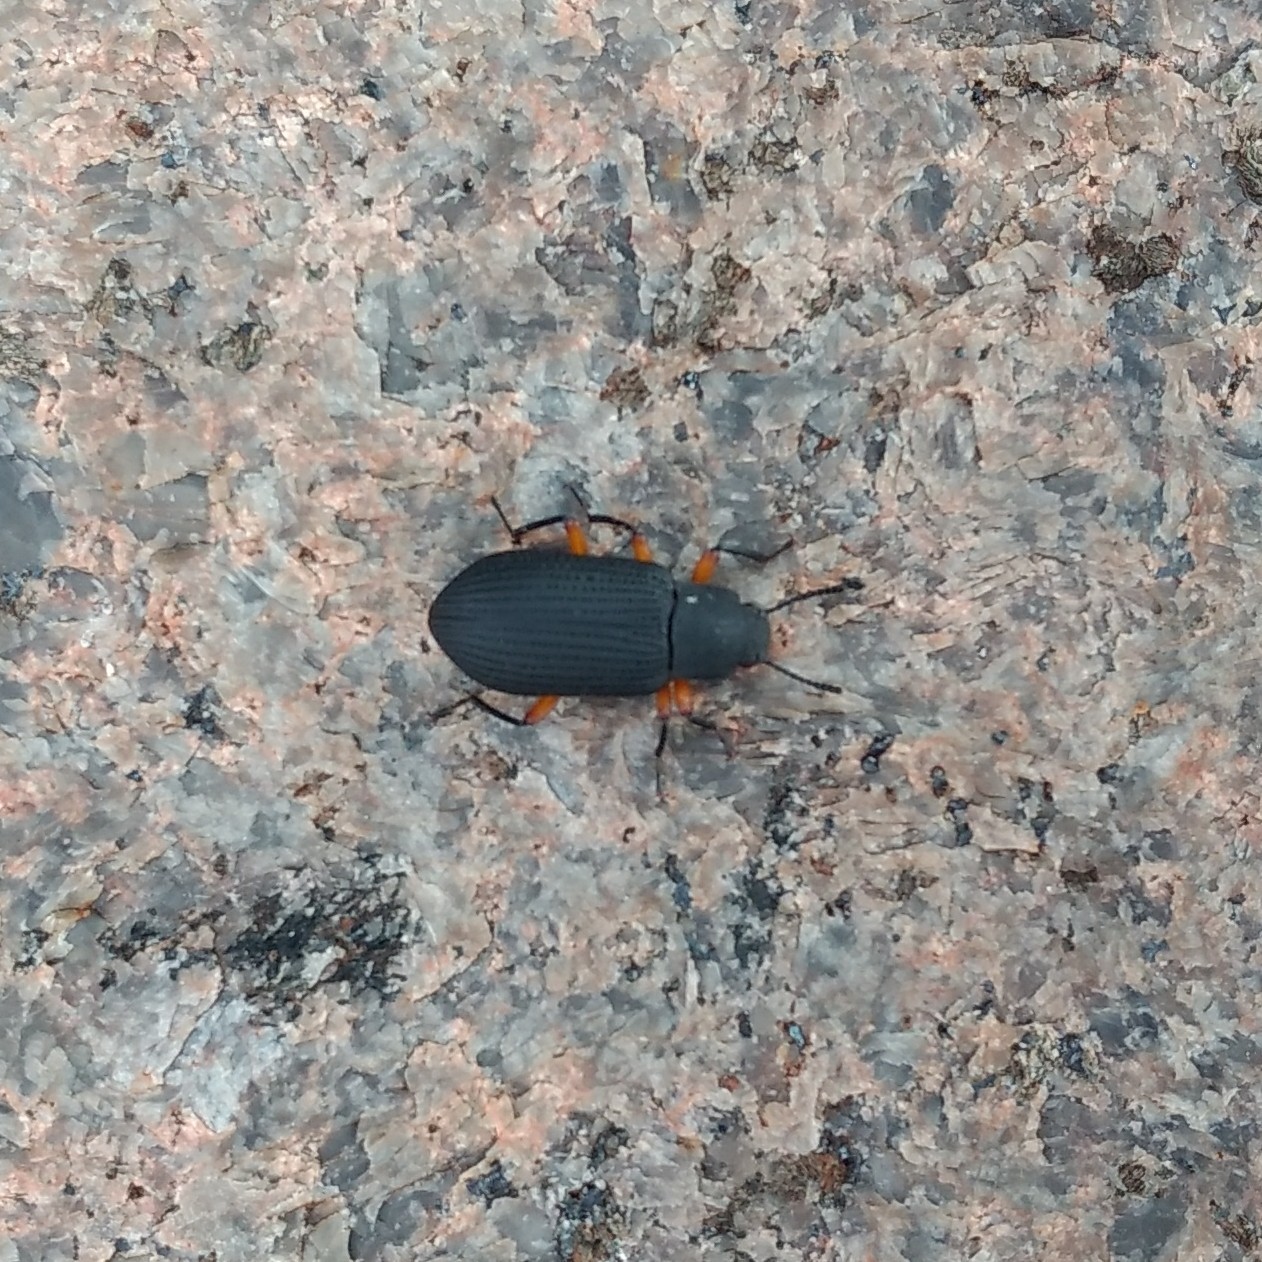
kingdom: Animalia
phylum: Arthropoda
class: Insecta
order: Coleoptera
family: Tenebrionidae
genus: Haplandrus
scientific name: Haplandrus fulvipes
